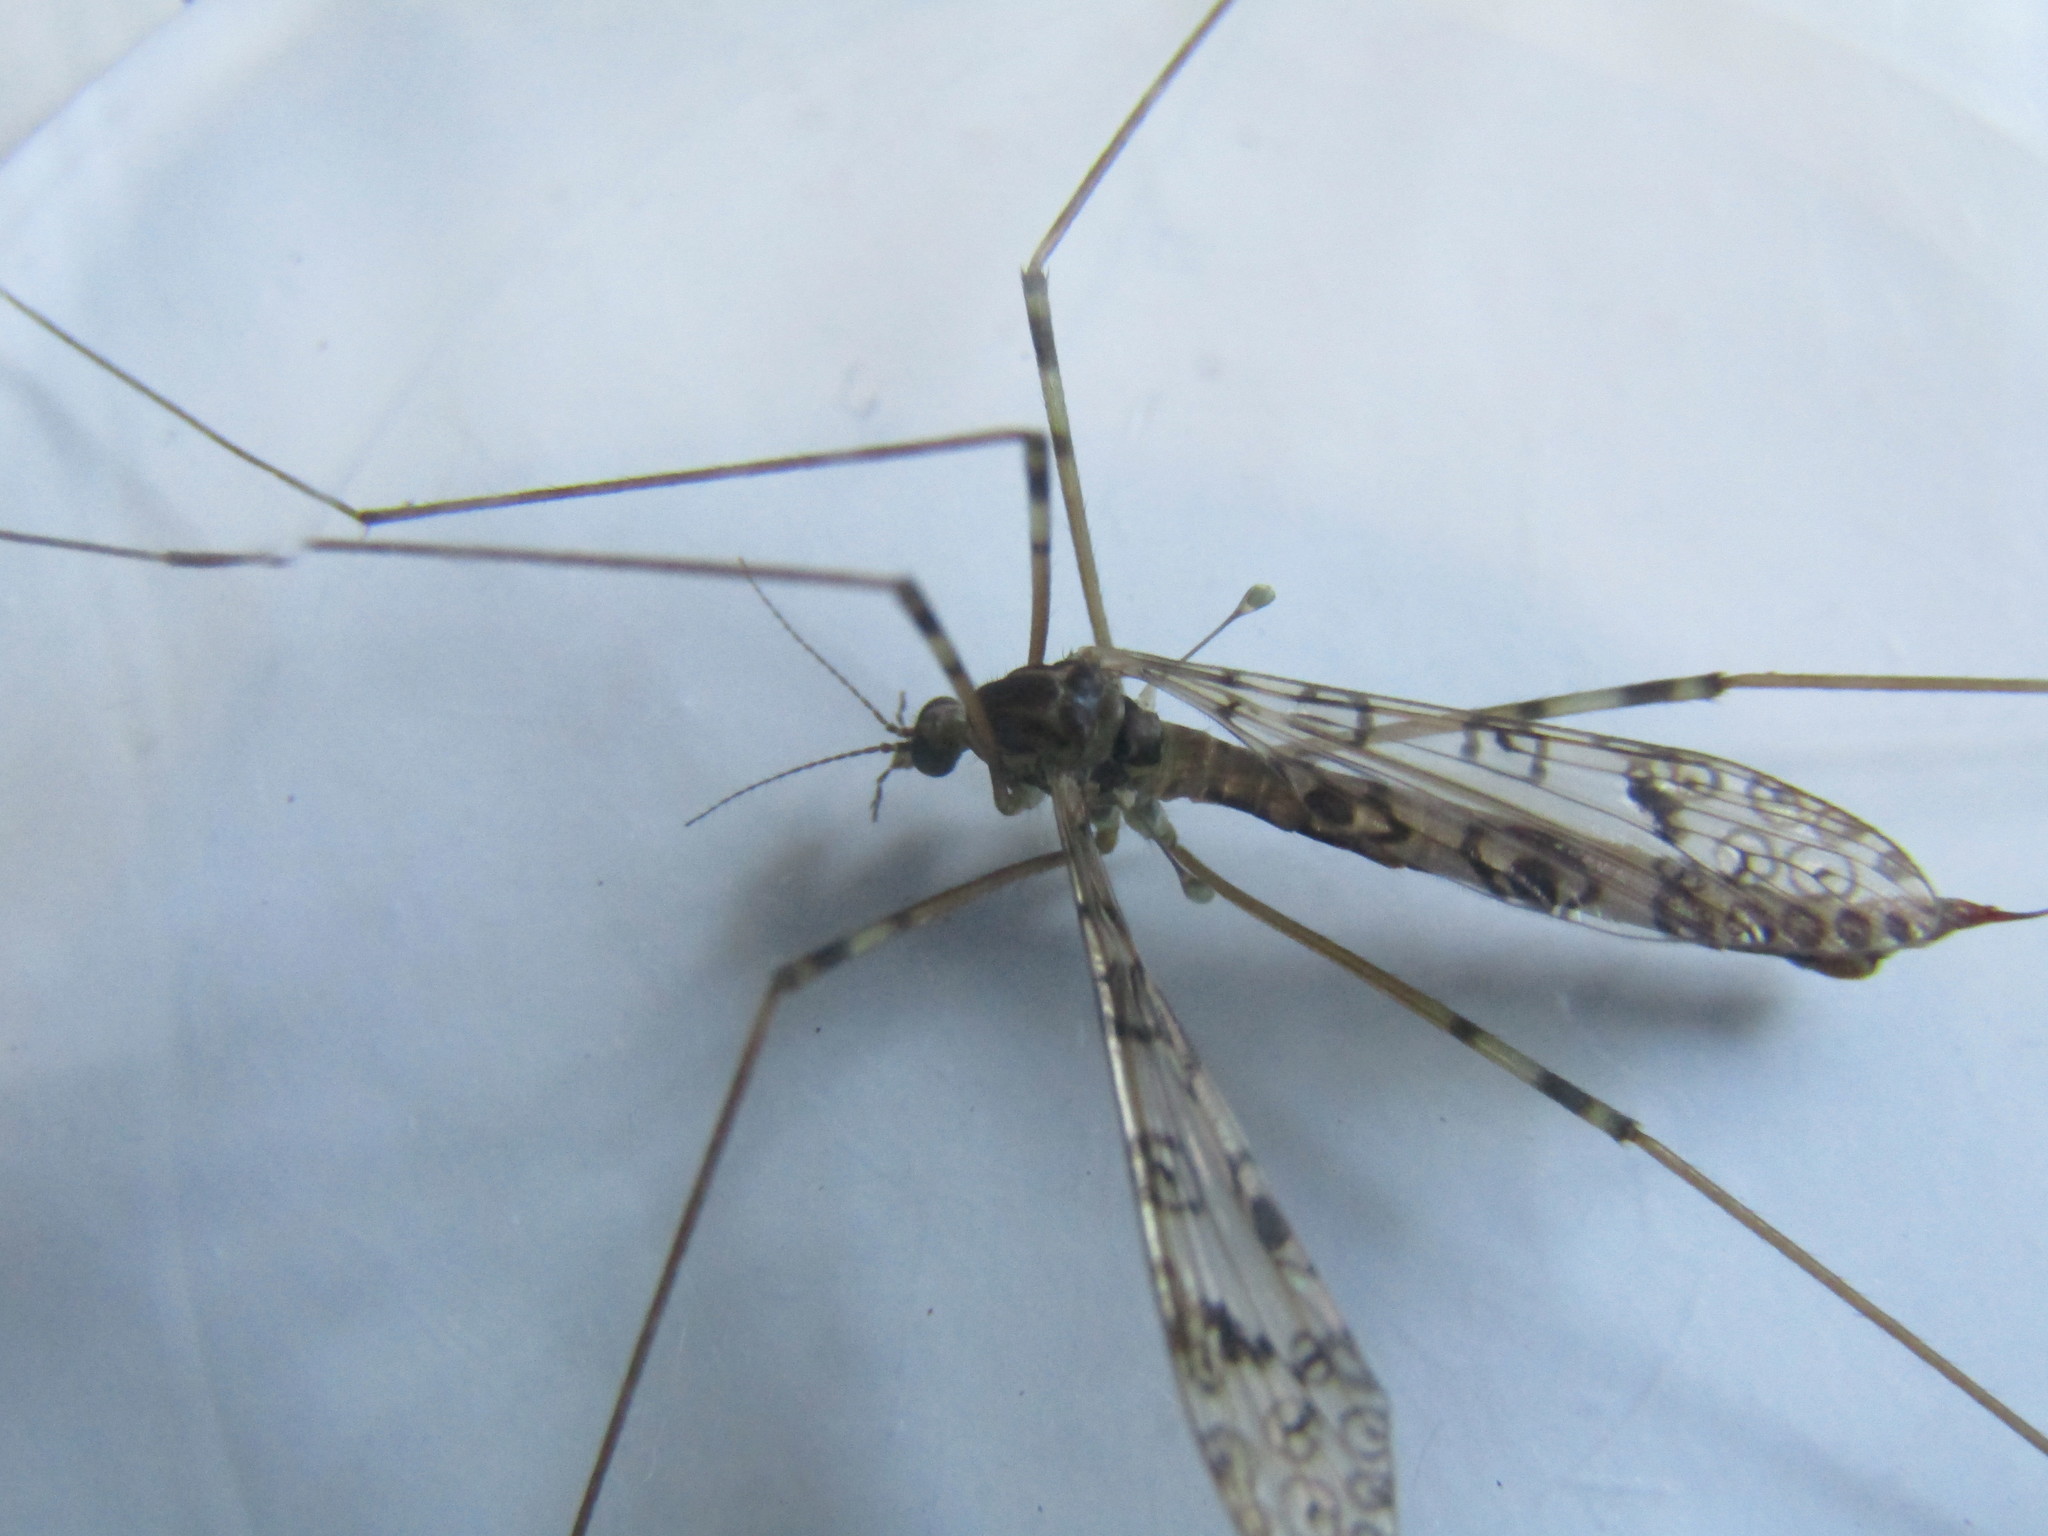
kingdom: Animalia
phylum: Arthropoda
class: Insecta
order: Diptera
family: Limoniidae
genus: Austrolimnophila
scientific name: Austrolimnophila argus
